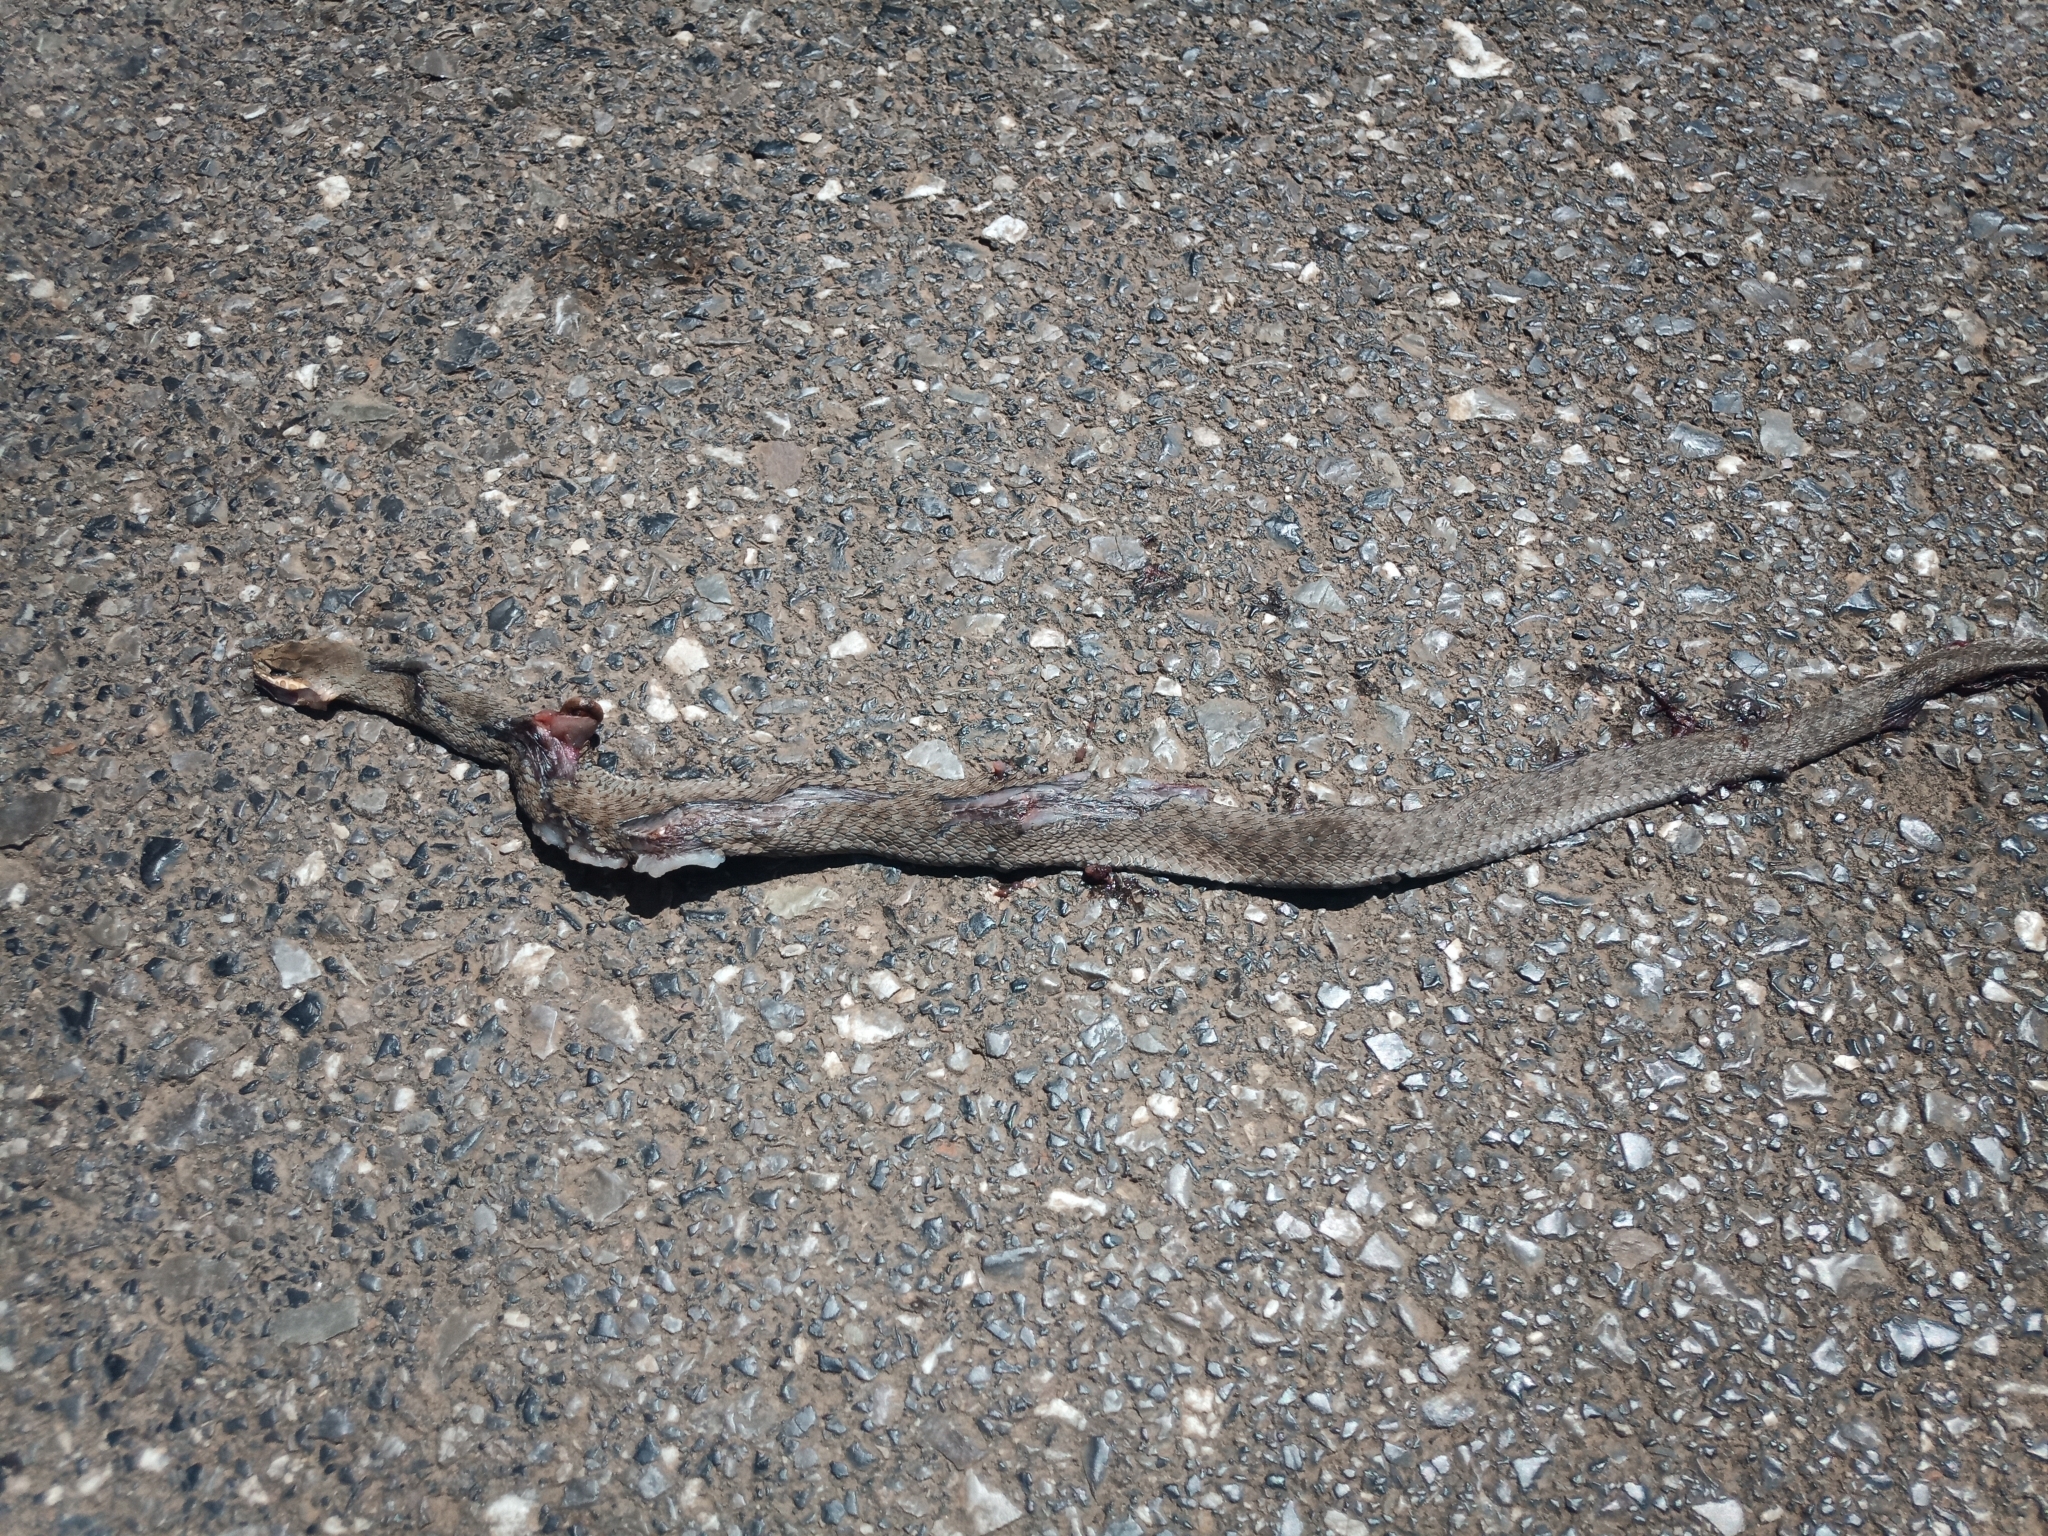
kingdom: Animalia
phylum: Chordata
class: Squamata
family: Psammophiidae
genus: Malpolon
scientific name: Malpolon insignitus
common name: Eastern montpellier snake
